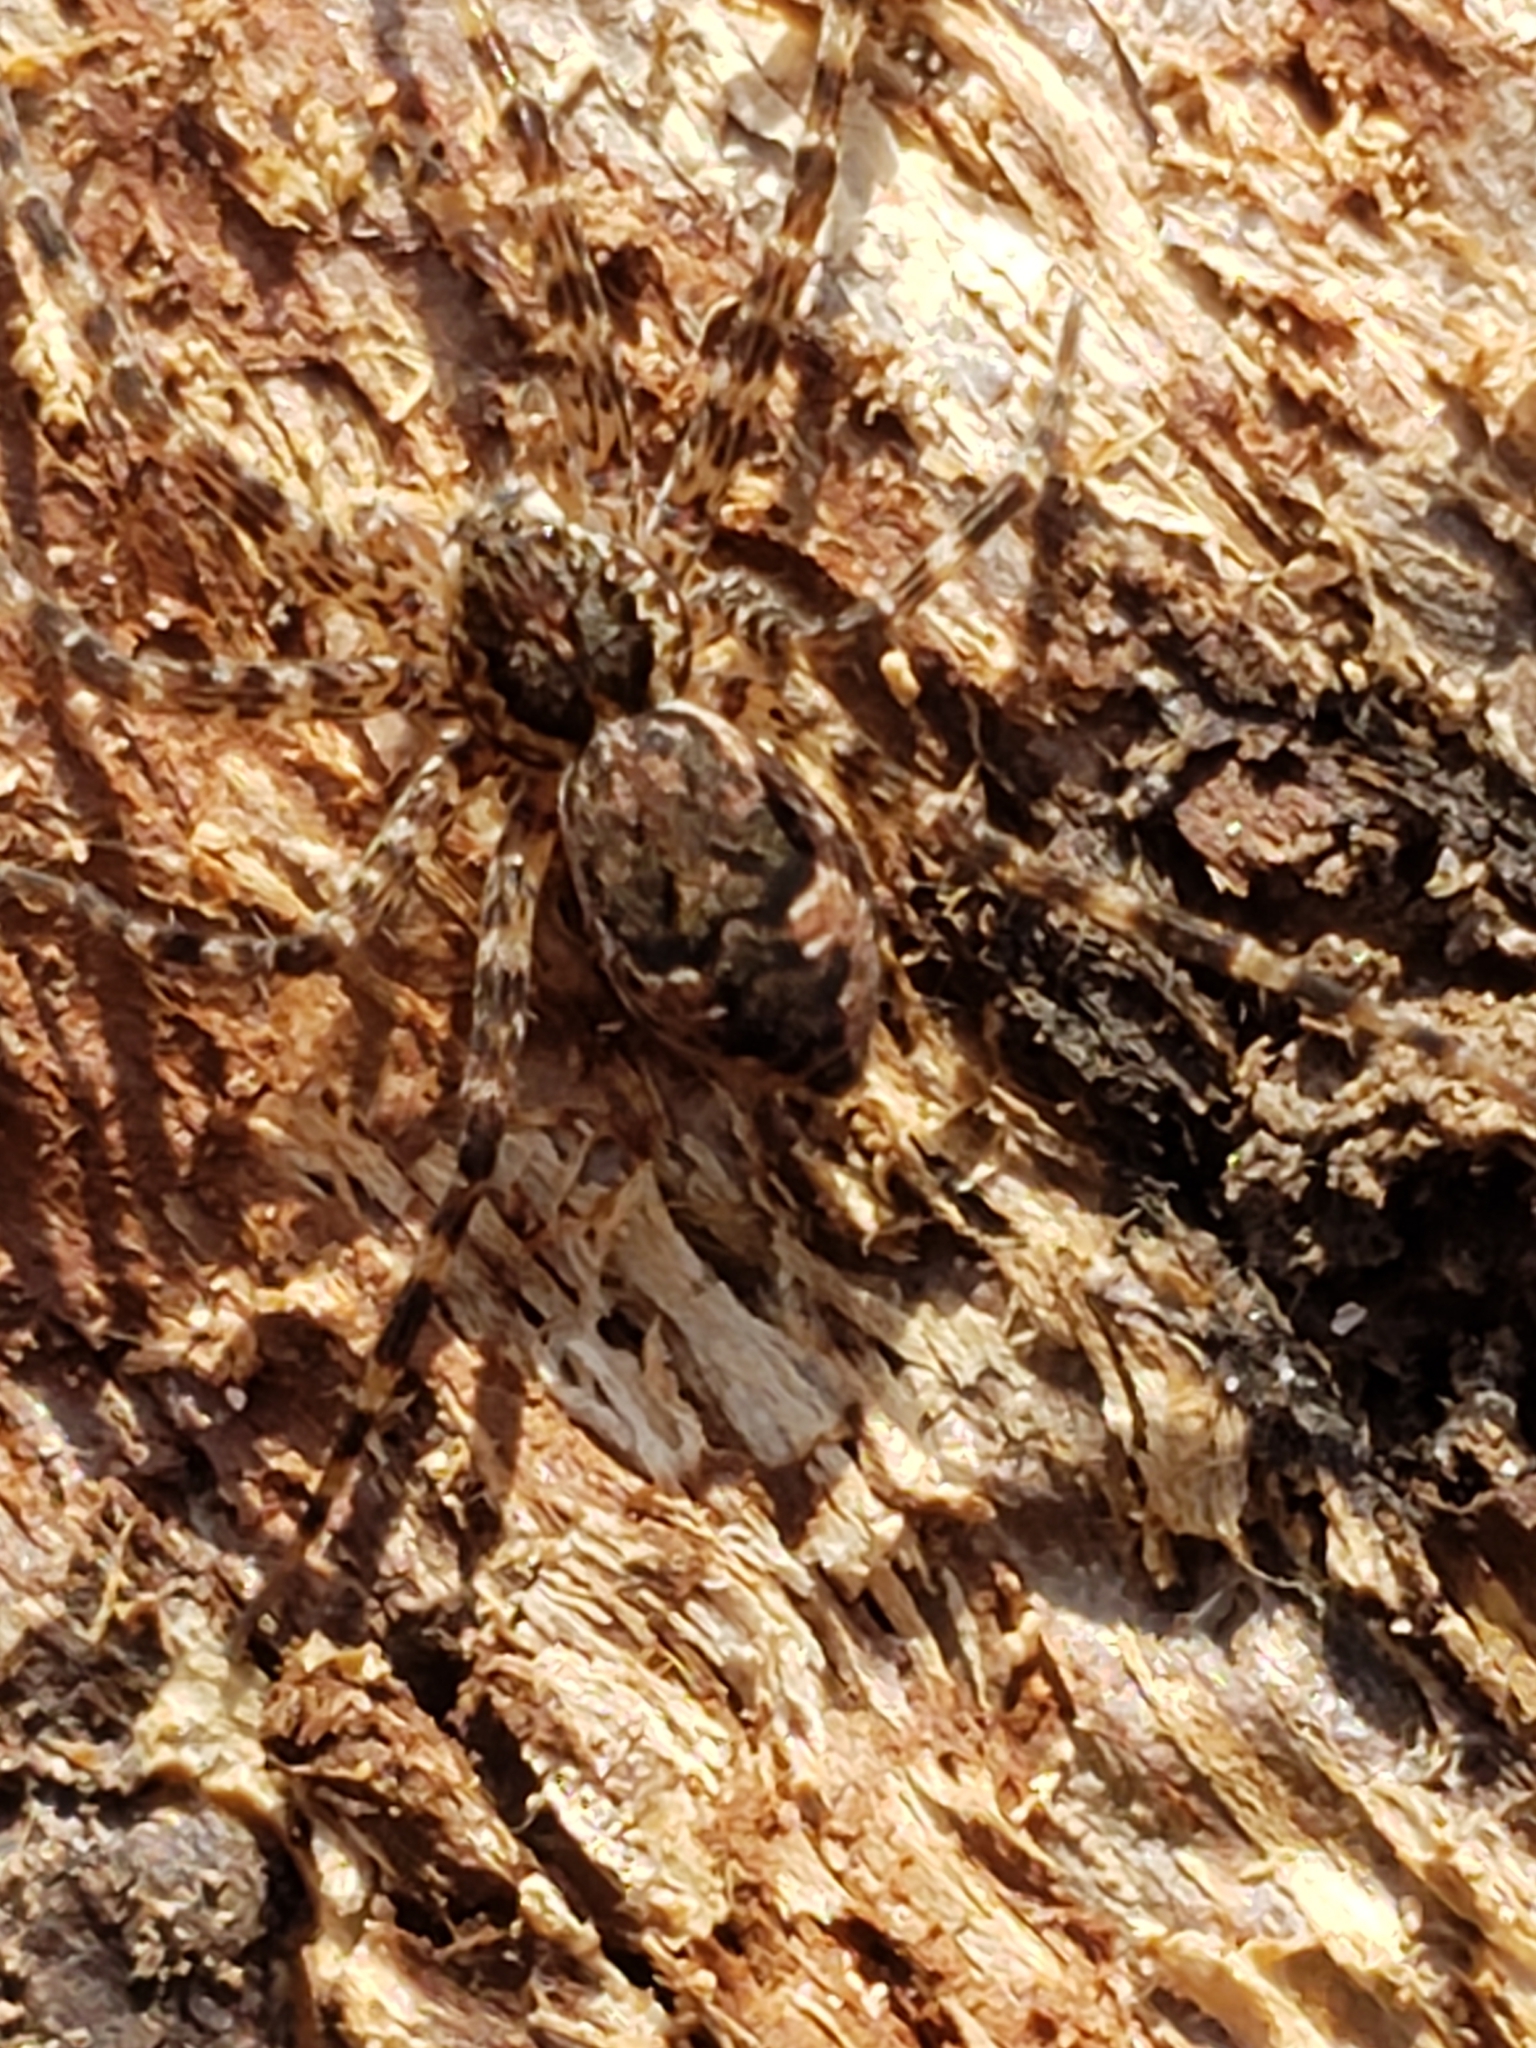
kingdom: Animalia
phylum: Arthropoda
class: Arachnida
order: Araneae
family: Pisauridae
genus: Dolomedes
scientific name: Dolomedes tenebrosus
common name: Dark fishing spider
